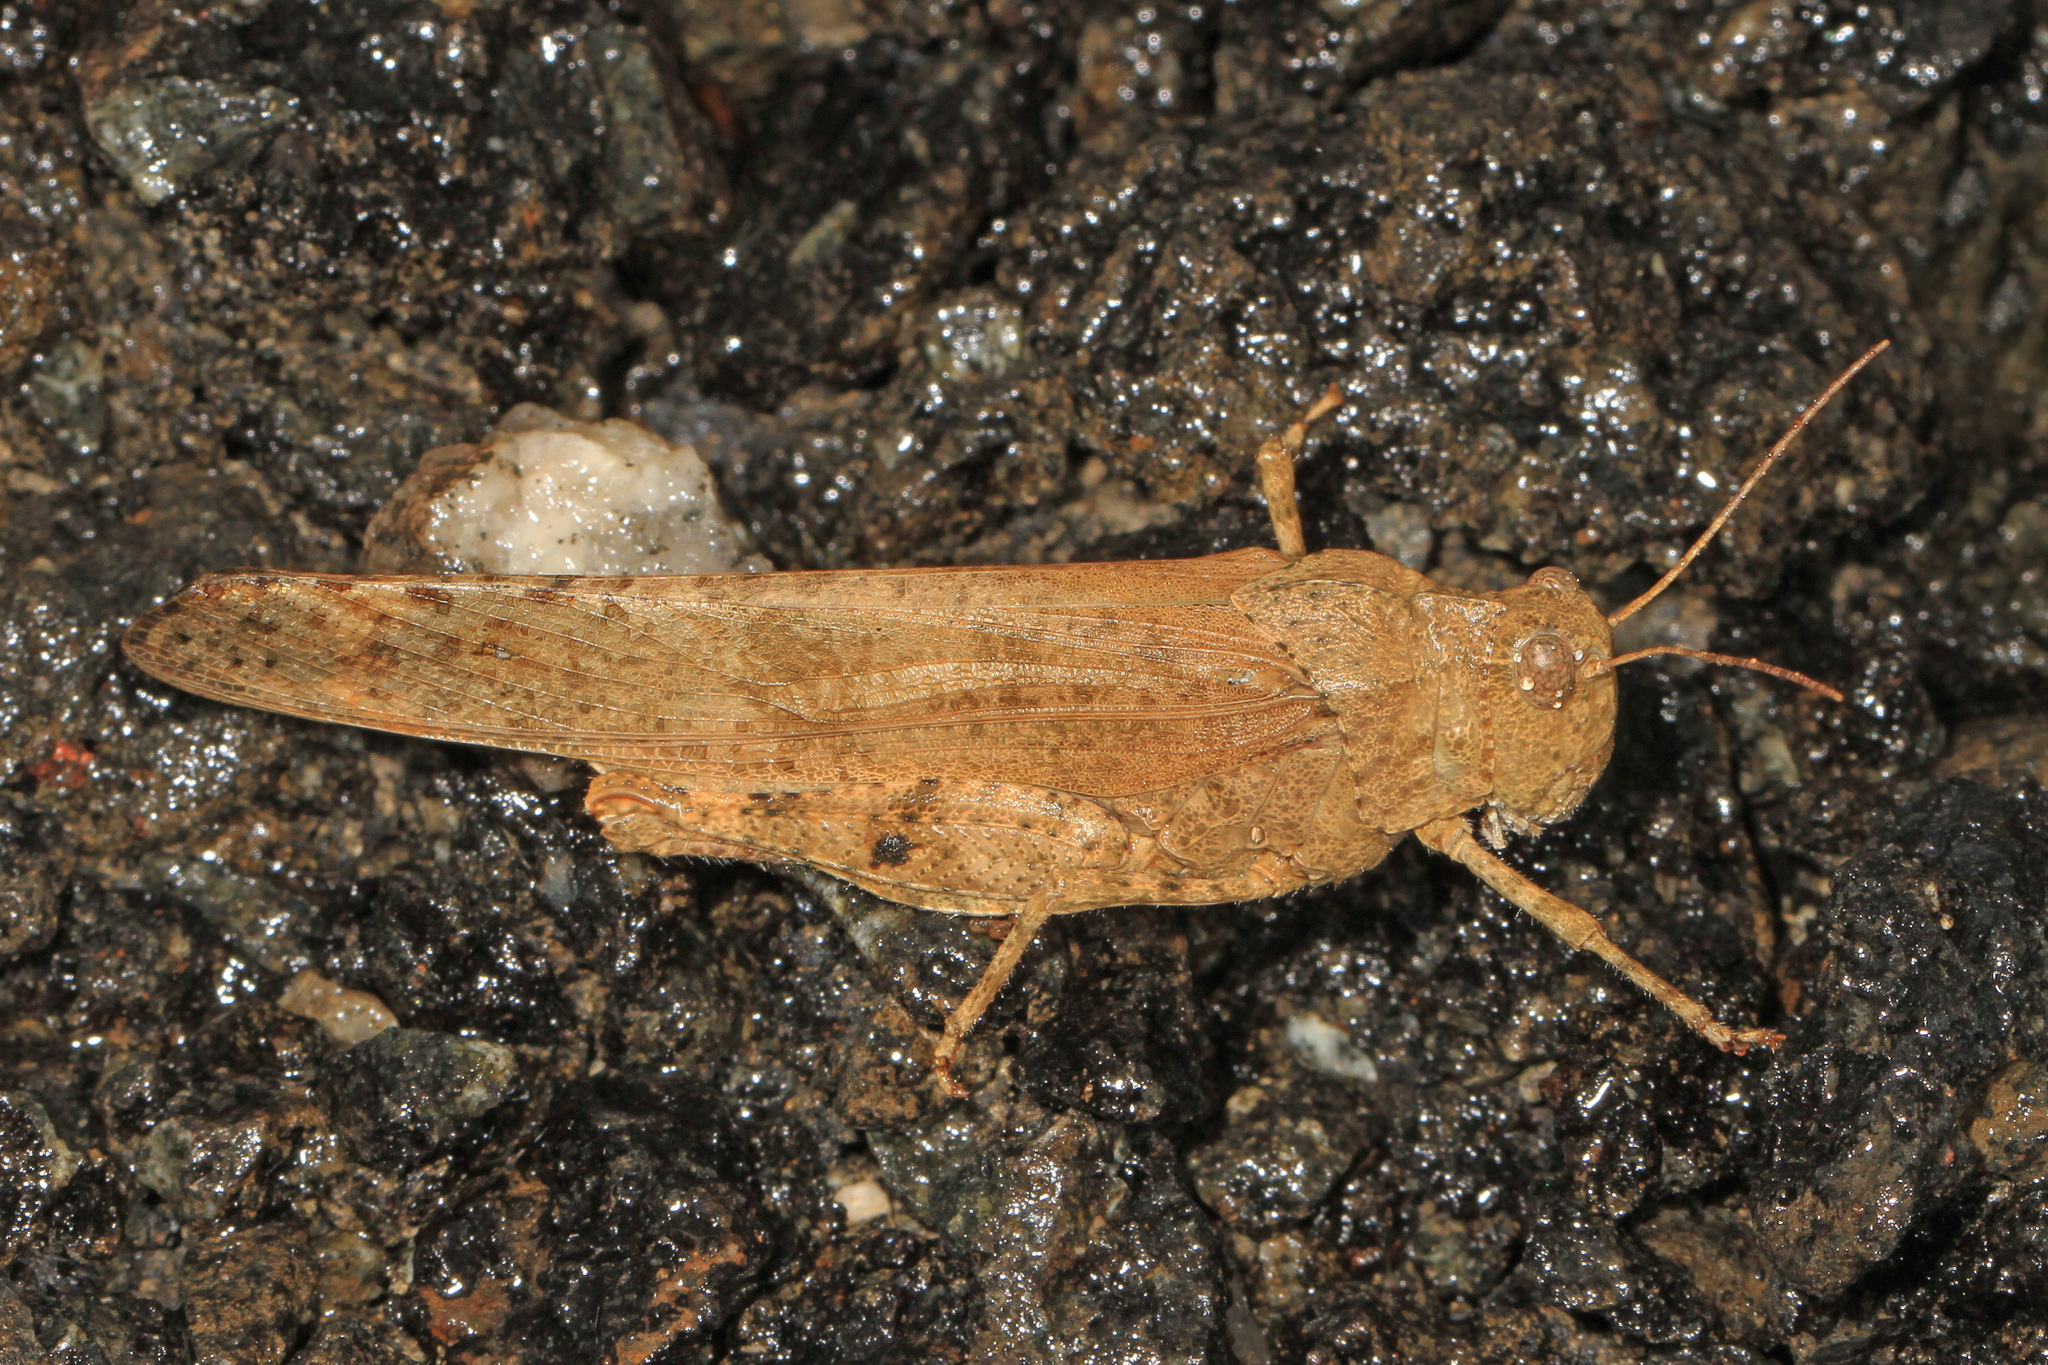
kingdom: Animalia
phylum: Arthropoda
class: Insecta
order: Orthoptera
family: Acrididae
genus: Dissosteira
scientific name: Dissosteira carolina
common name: Carolina grasshopper
